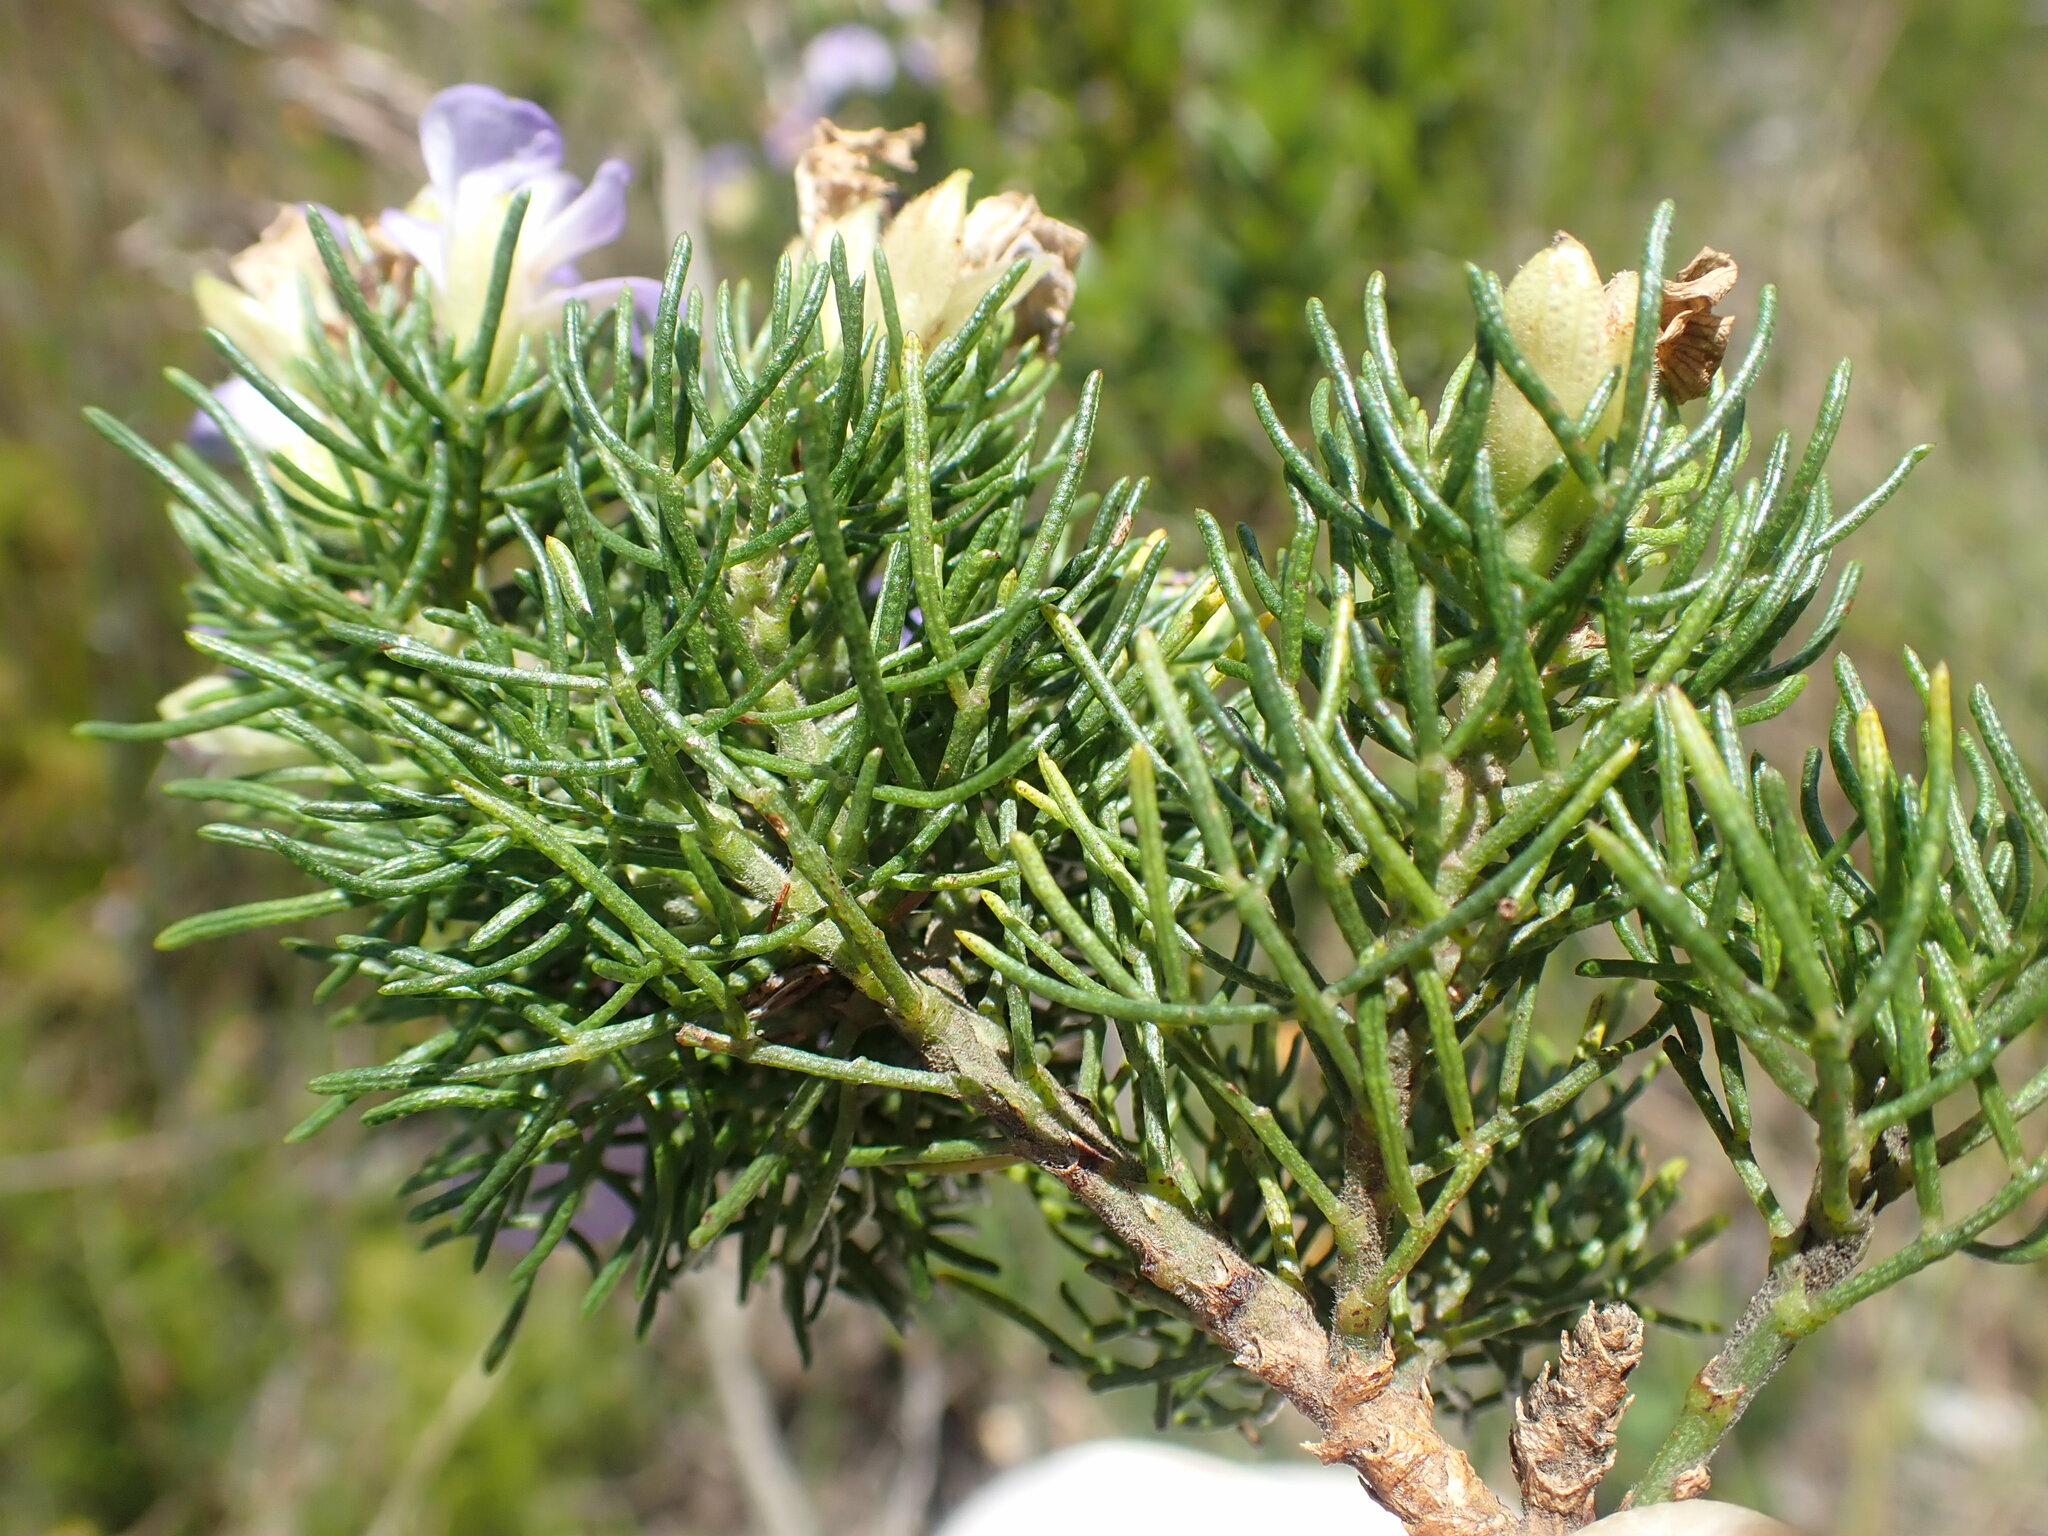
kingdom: Plantae
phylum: Tracheophyta
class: Magnoliopsida
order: Fabales
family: Fabaceae
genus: Psoralea
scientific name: Psoralea speciosa
